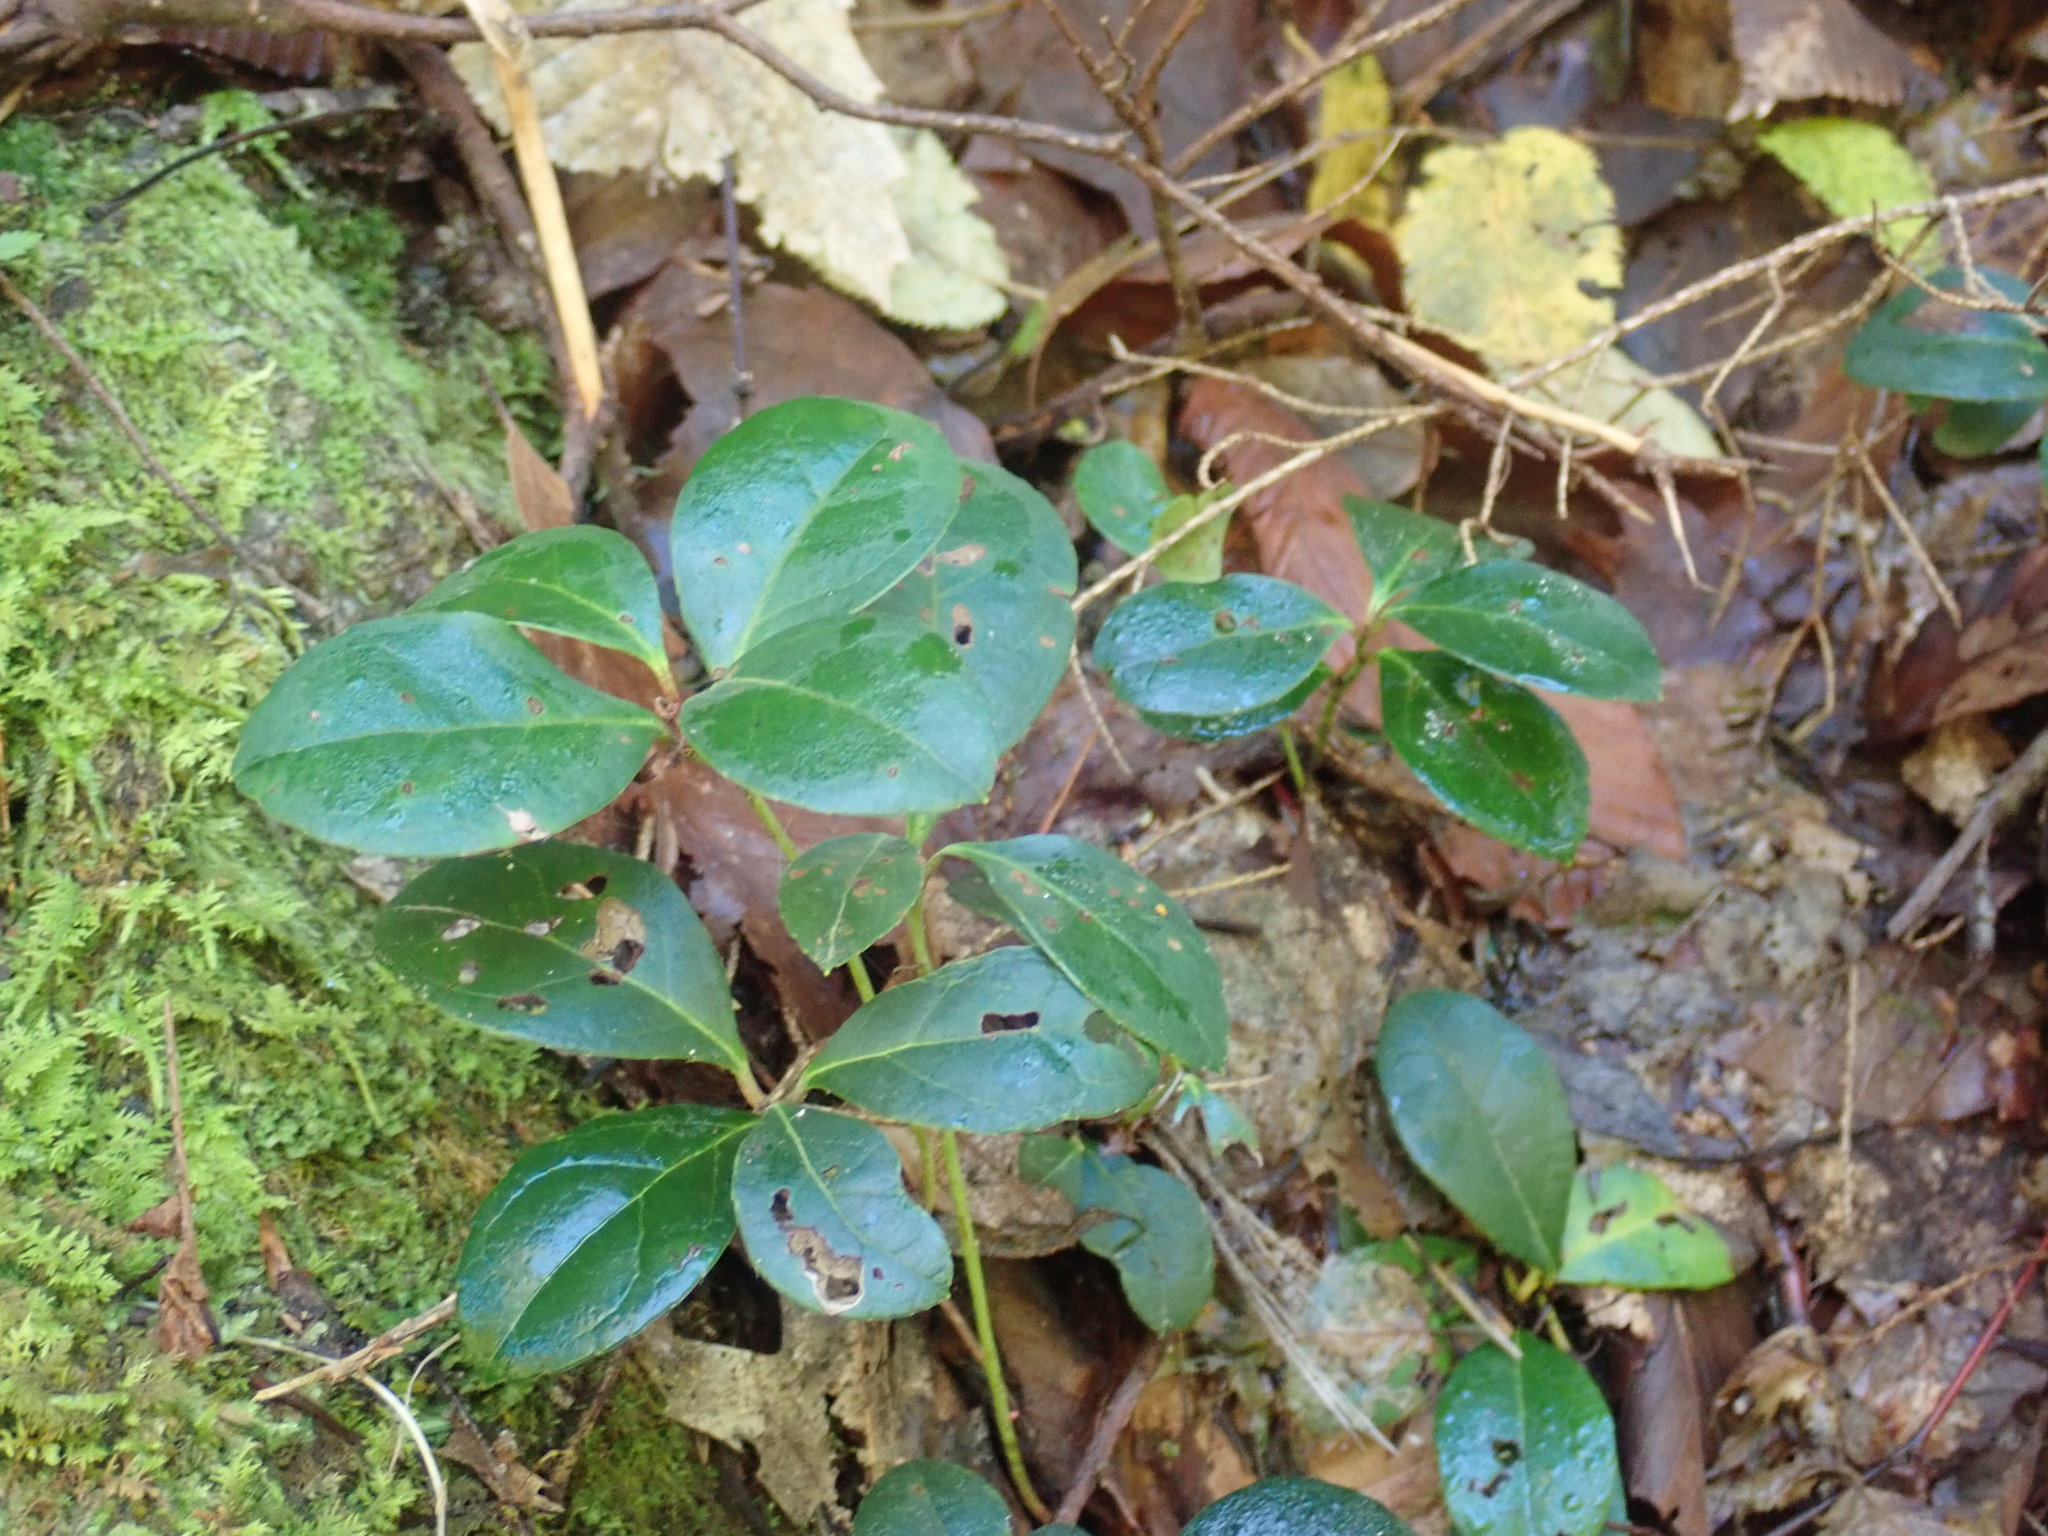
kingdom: Plantae
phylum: Tracheophyta
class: Magnoliopsida
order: Ericales
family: Ericaceae
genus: Gaultheria
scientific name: Gaultheria procumbens
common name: Checkerberry
